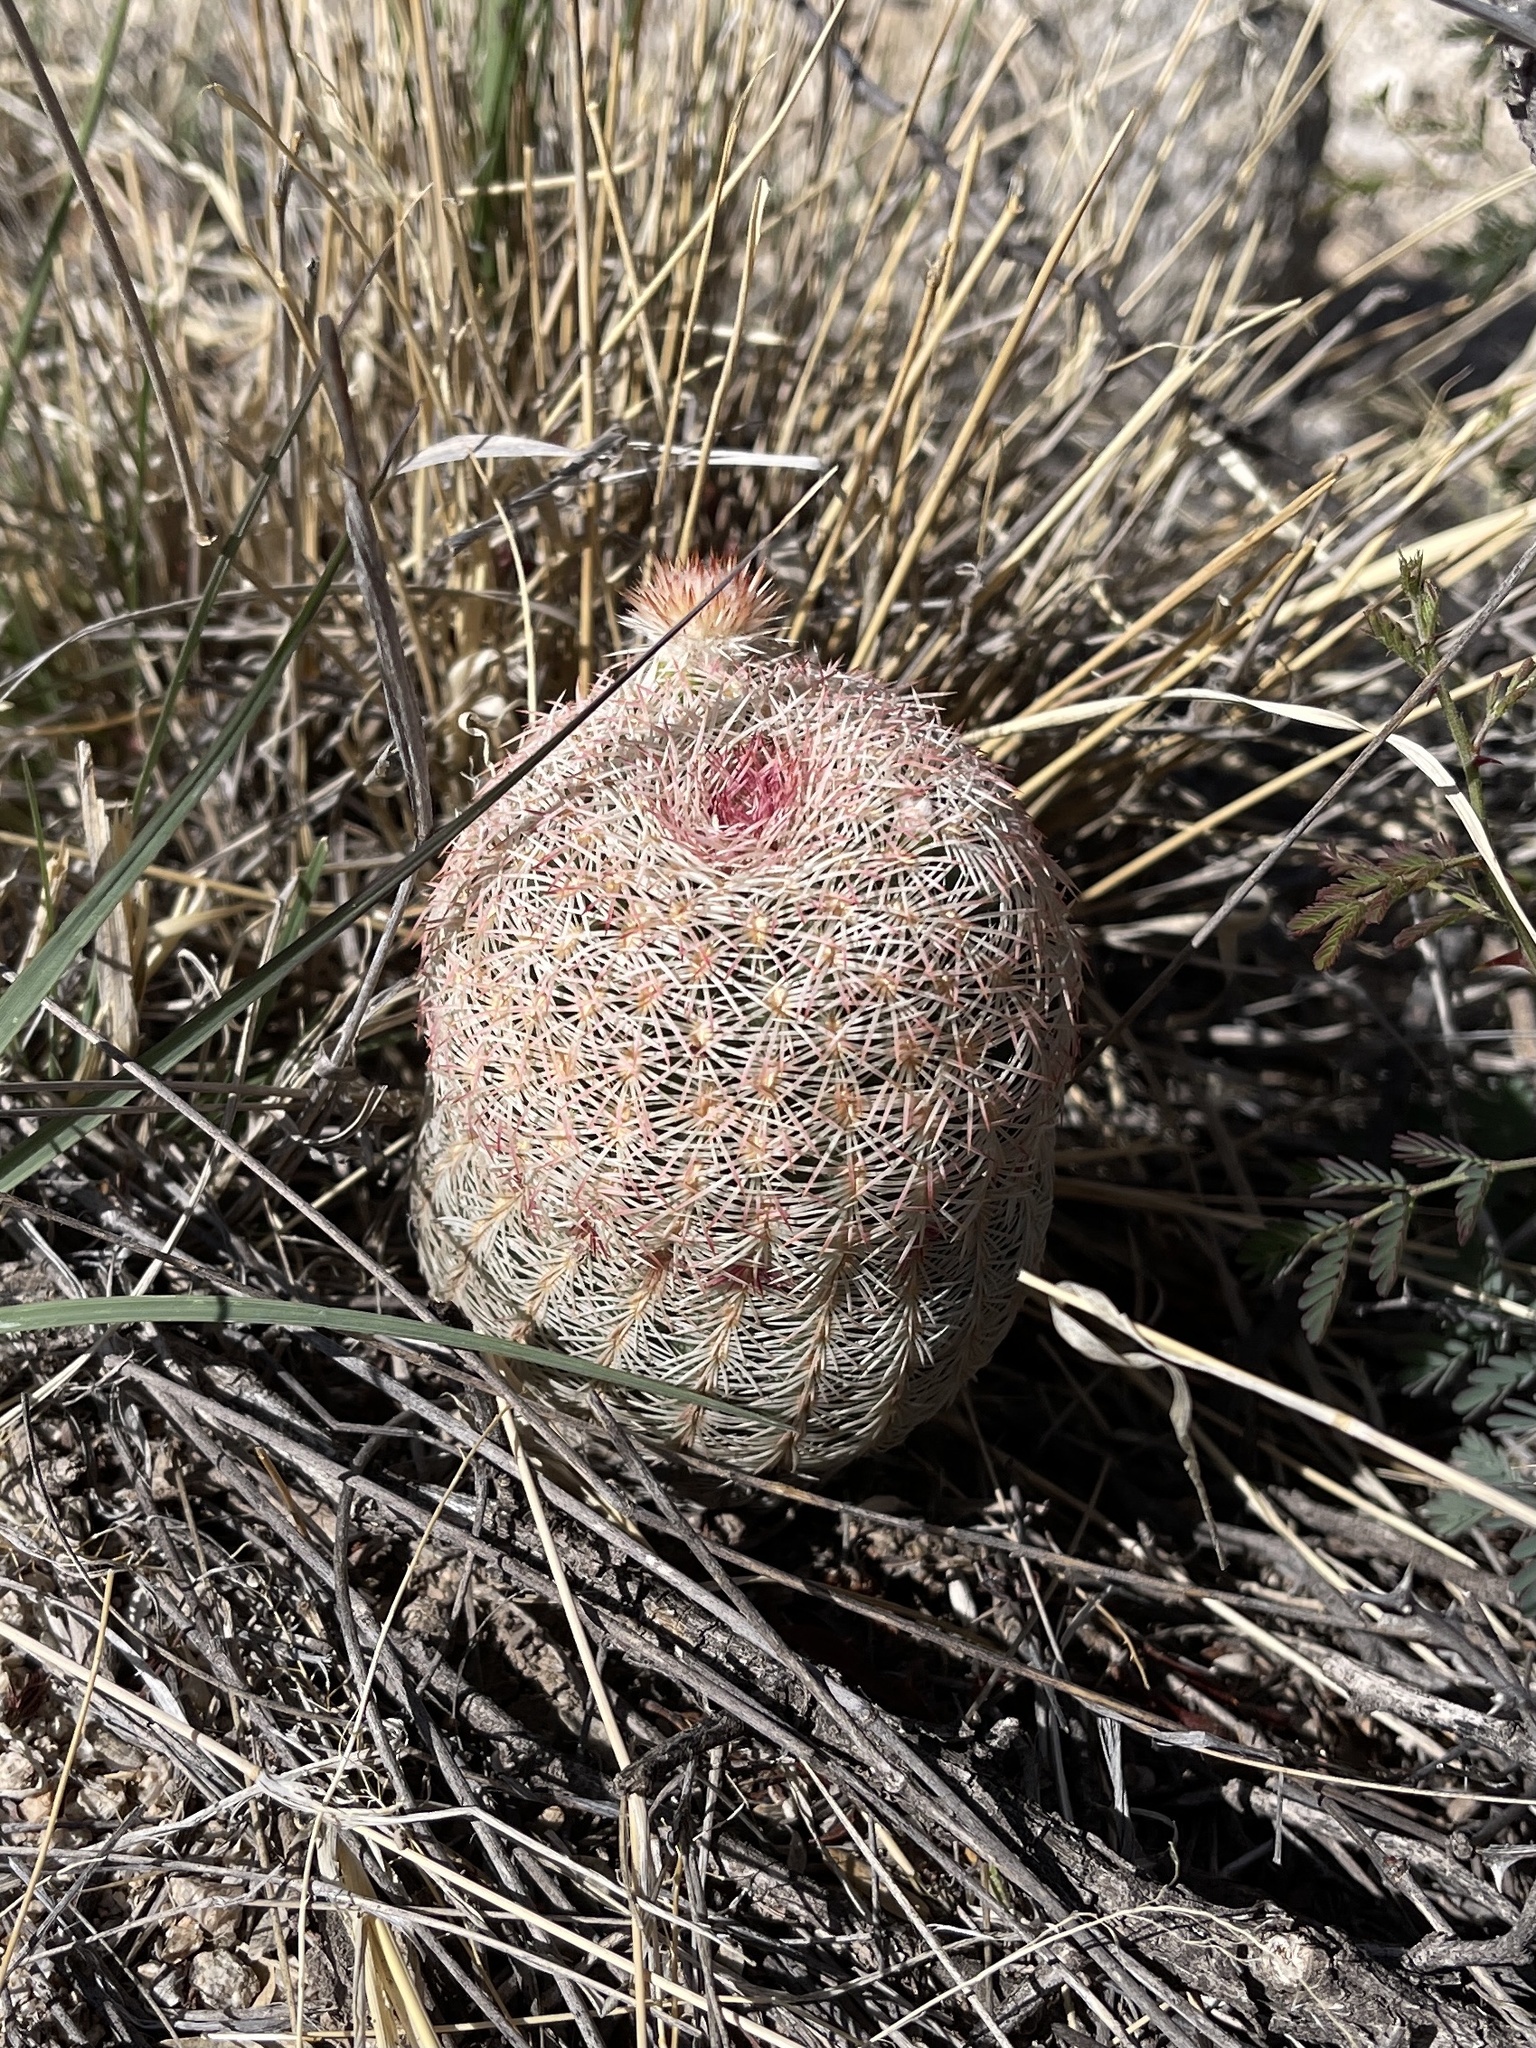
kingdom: Plantae
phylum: Tracheophyta
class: Magnoliopsida
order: Caryophyllales
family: Cactaceae
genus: Echinocereus
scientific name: Echinocereus rigidissimus
